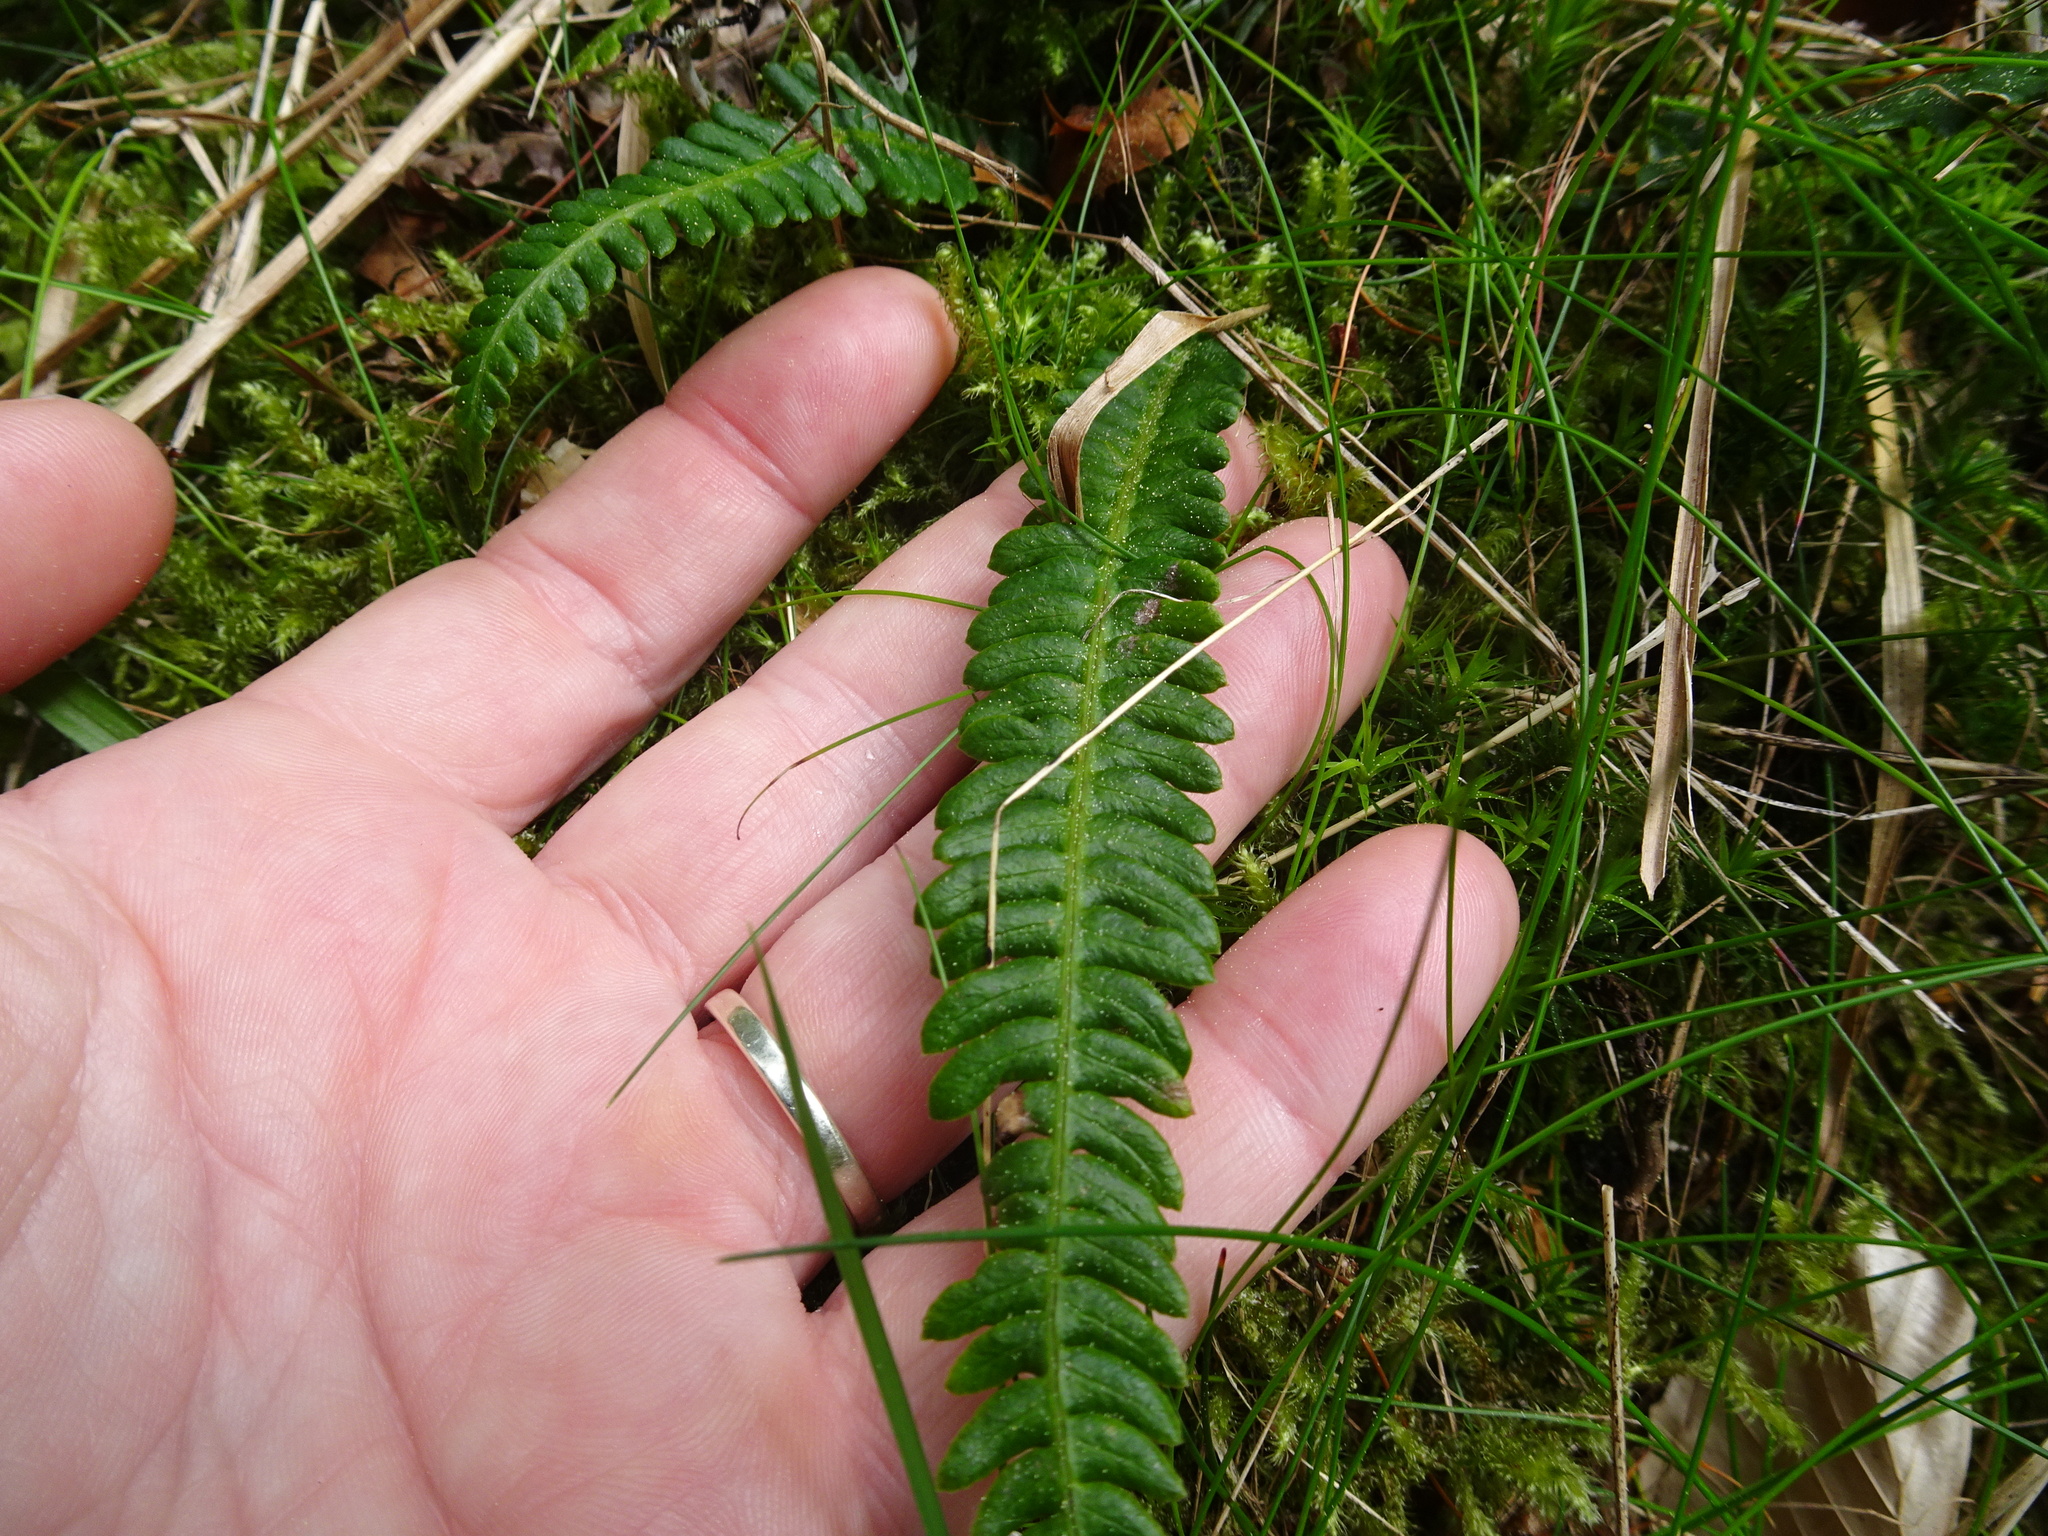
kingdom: Plantae
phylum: Tracheophyta
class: Polypodiopsida
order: Polypodiales
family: Blechnaceae
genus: Struthiopteris
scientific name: Struthiopteris spicant
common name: Deer fern
